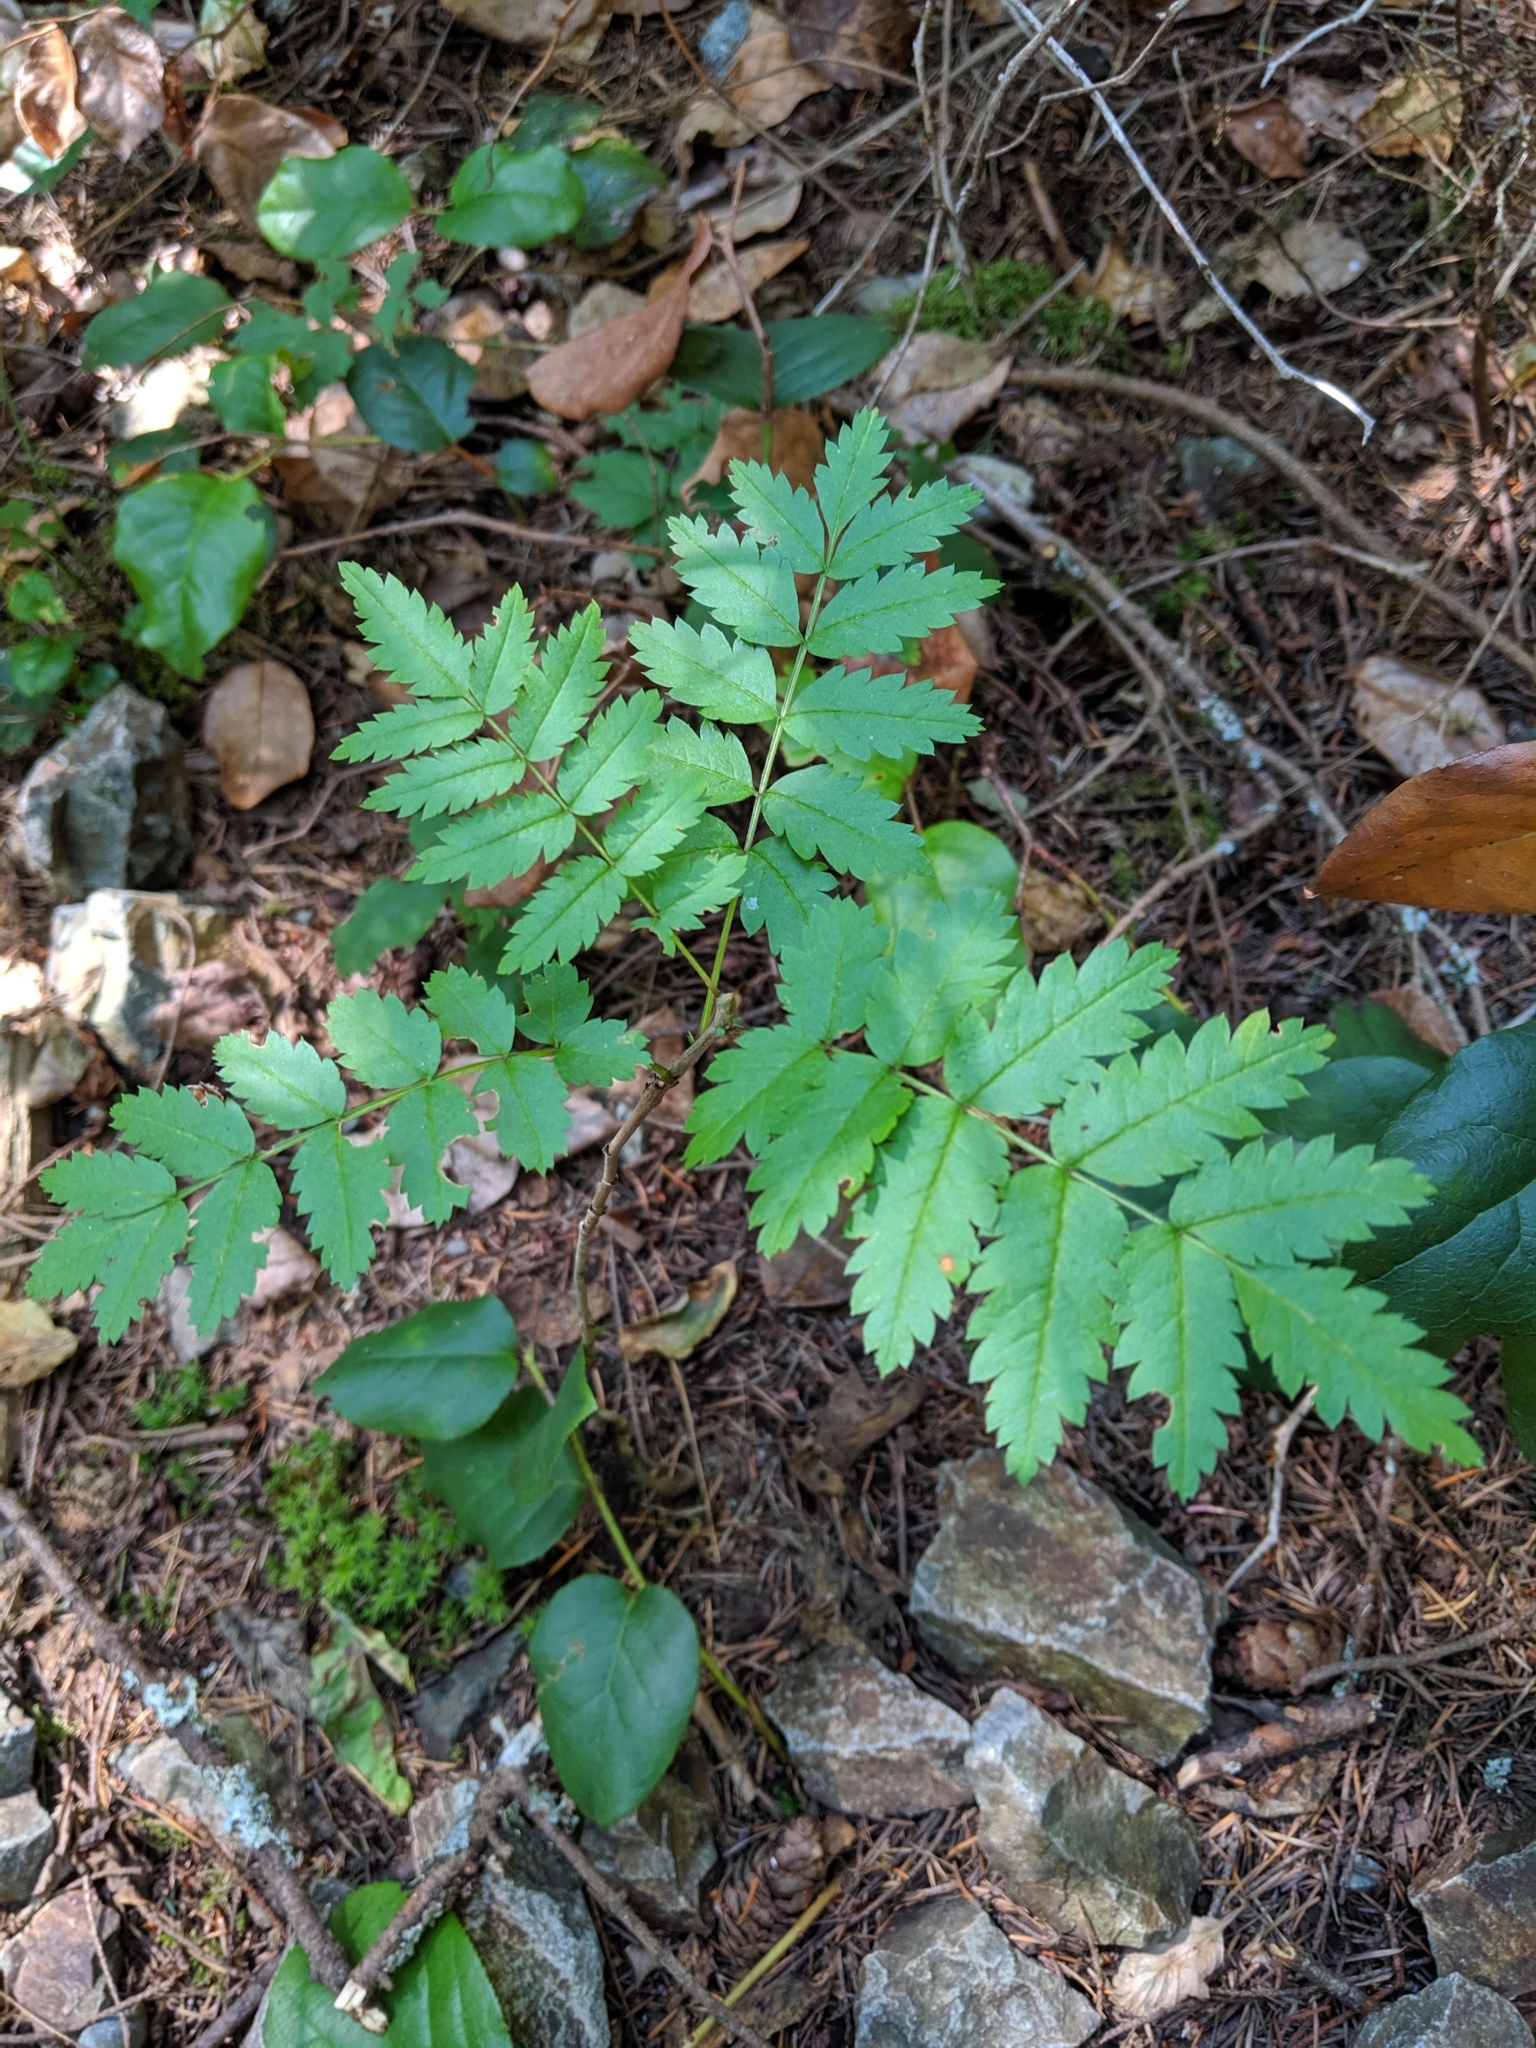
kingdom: Plantae
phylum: Tracheophyta
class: Magnoliopsida
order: Rosales
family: Rosaceae
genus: Sorbus
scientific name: Sorbus aucuparia
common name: Rowan
